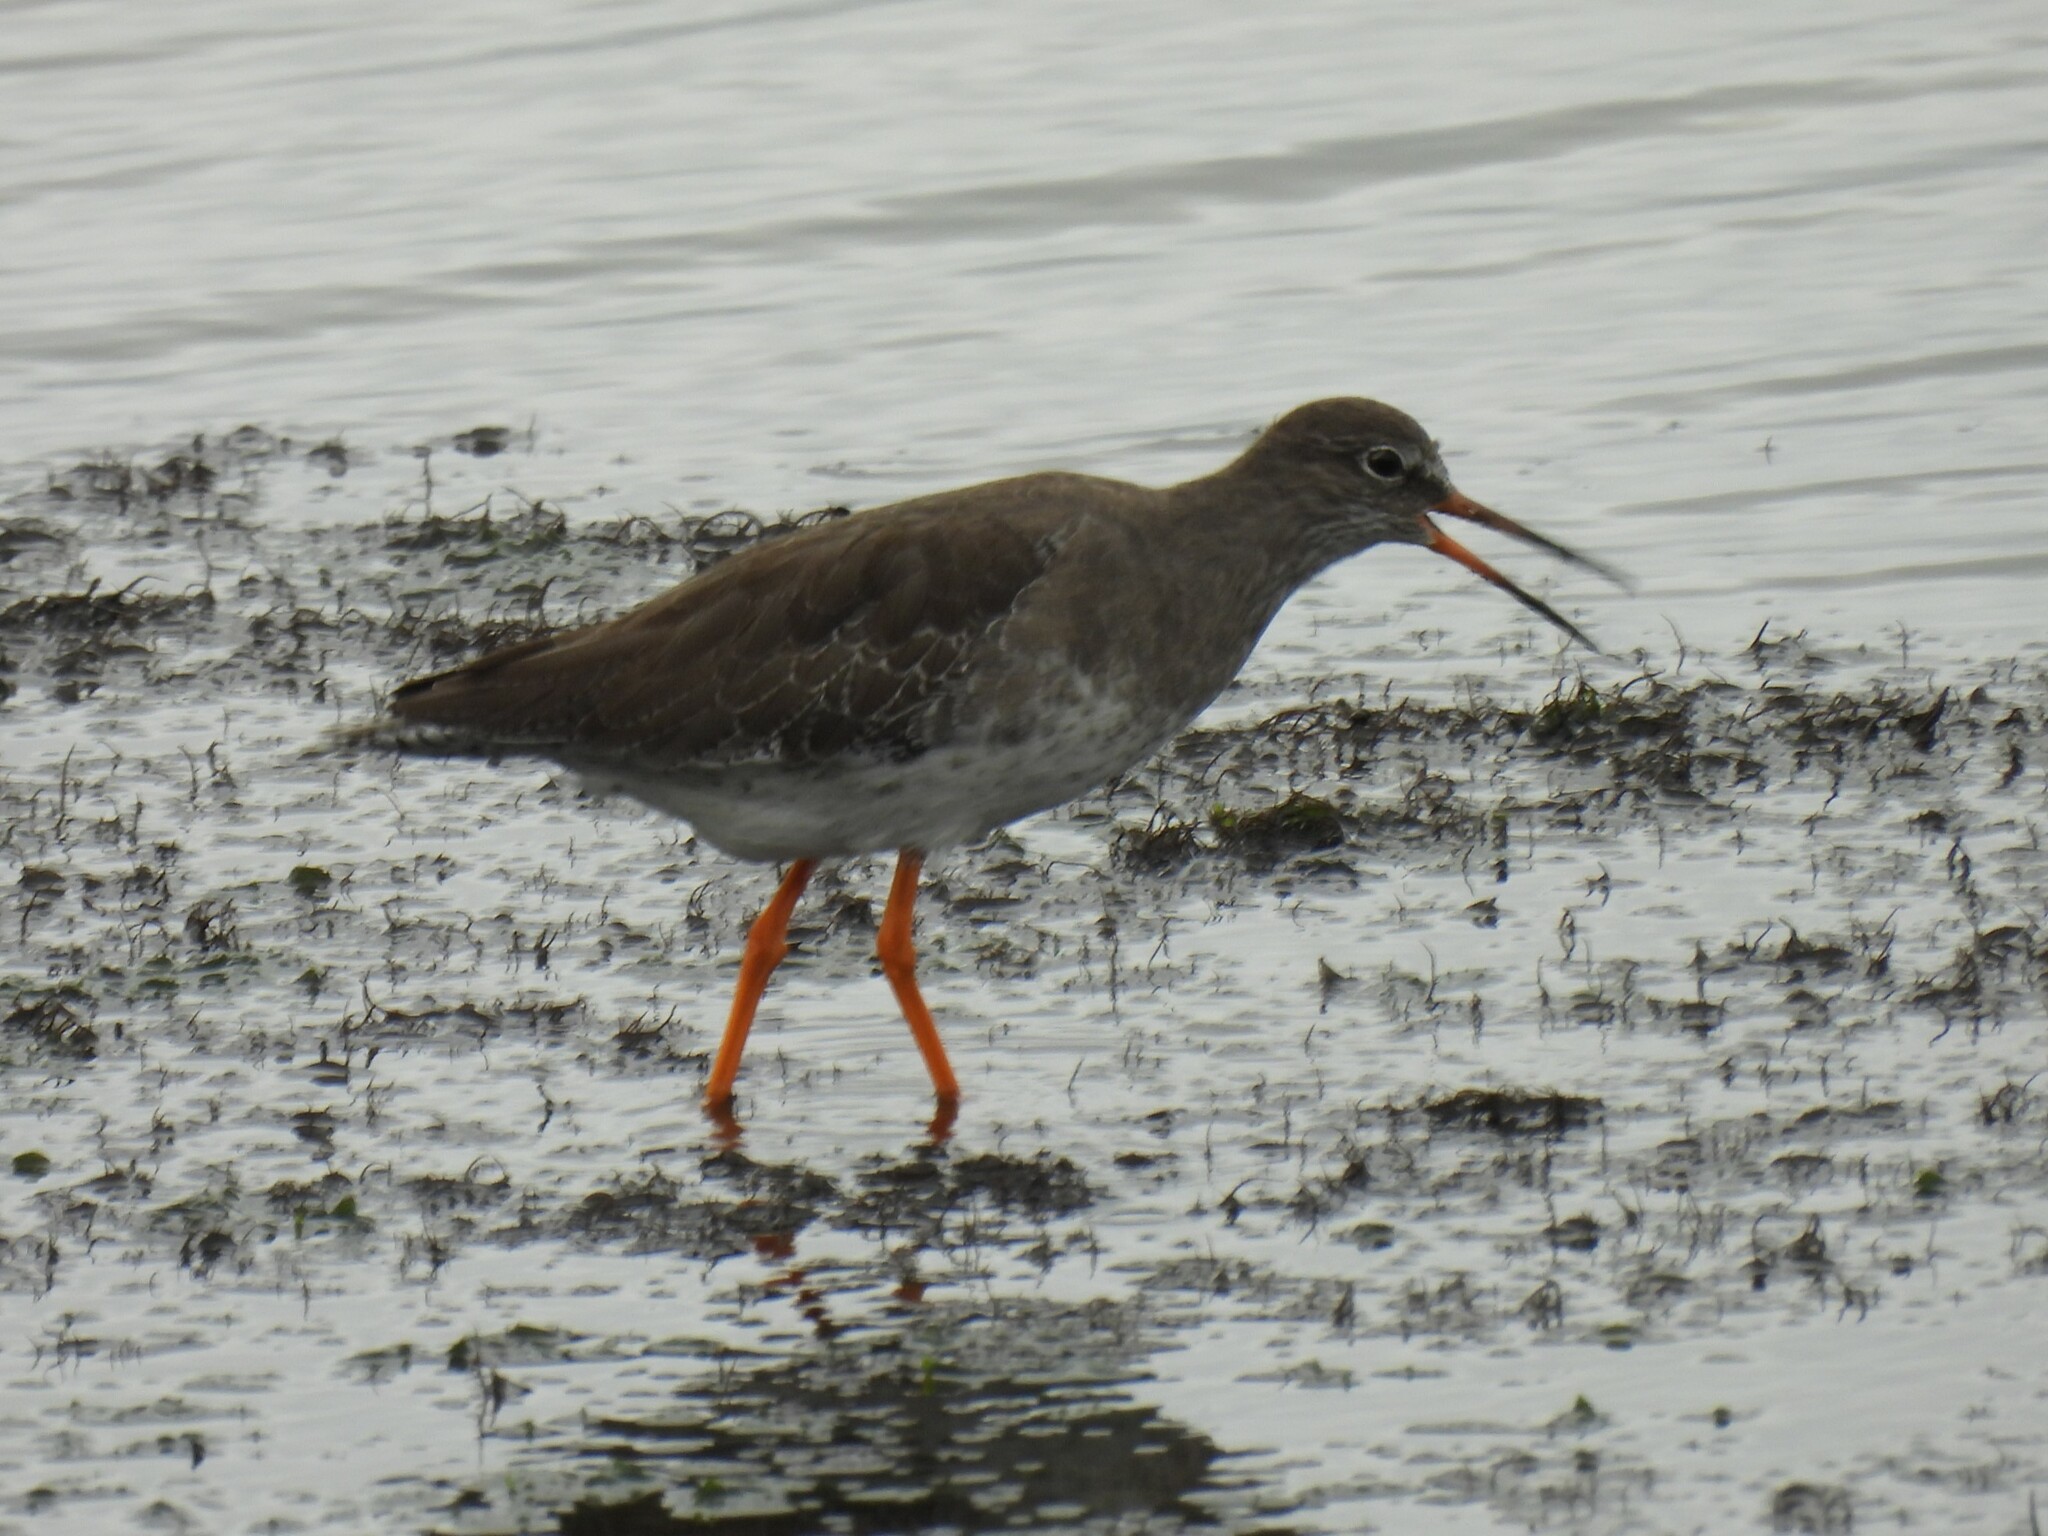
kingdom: Animalia
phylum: Chordata
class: Aves
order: Charadriiformes
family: Scolopacidae
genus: Tringa
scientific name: Tringa totanus
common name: Common redshank
